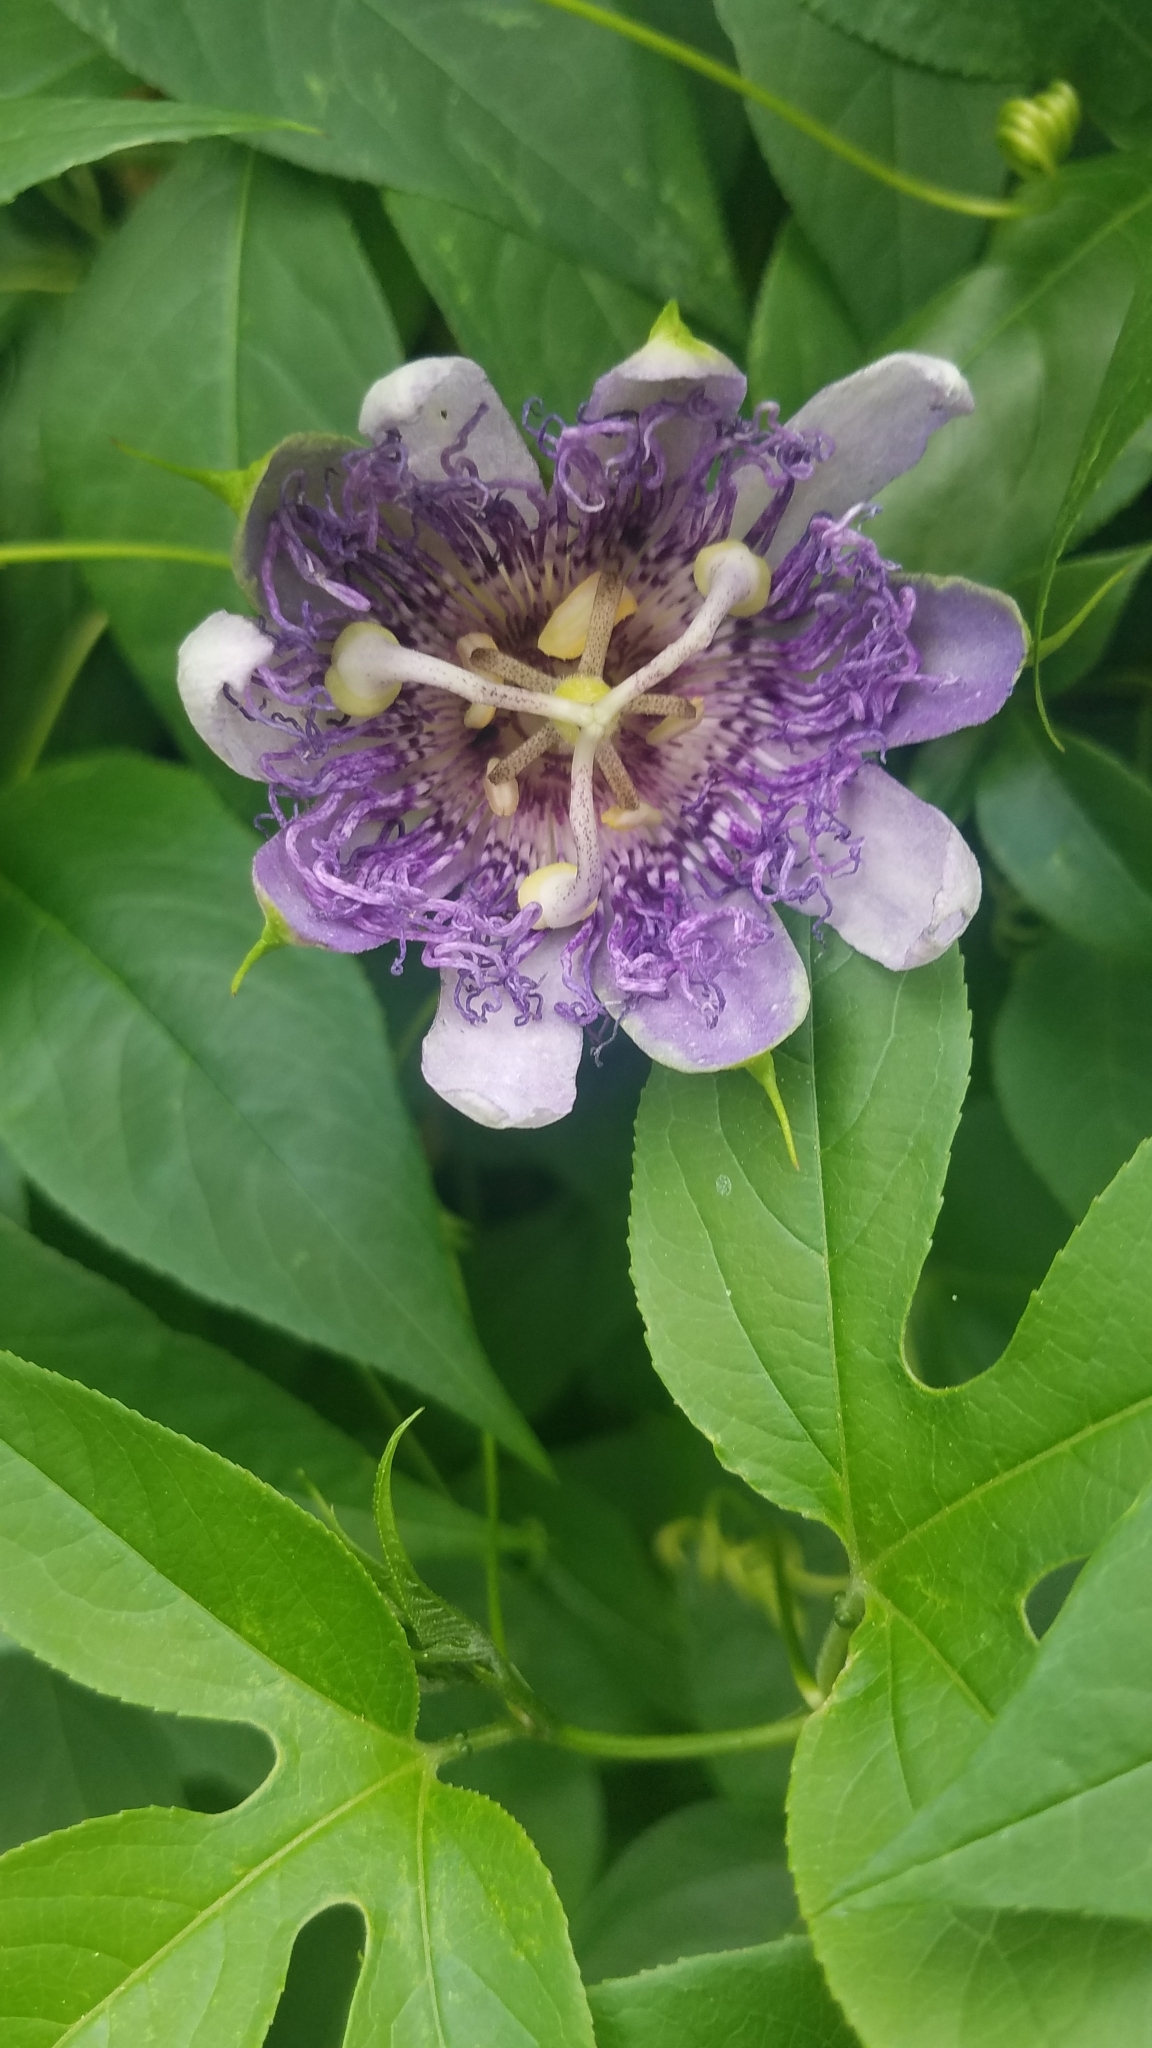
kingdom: Plantae
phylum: Tracheophyta
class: Magnoliopsida
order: Malpighiales
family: Passifloraceae
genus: Passiflora
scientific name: Passiflora incarnata
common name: Apricot-vine
